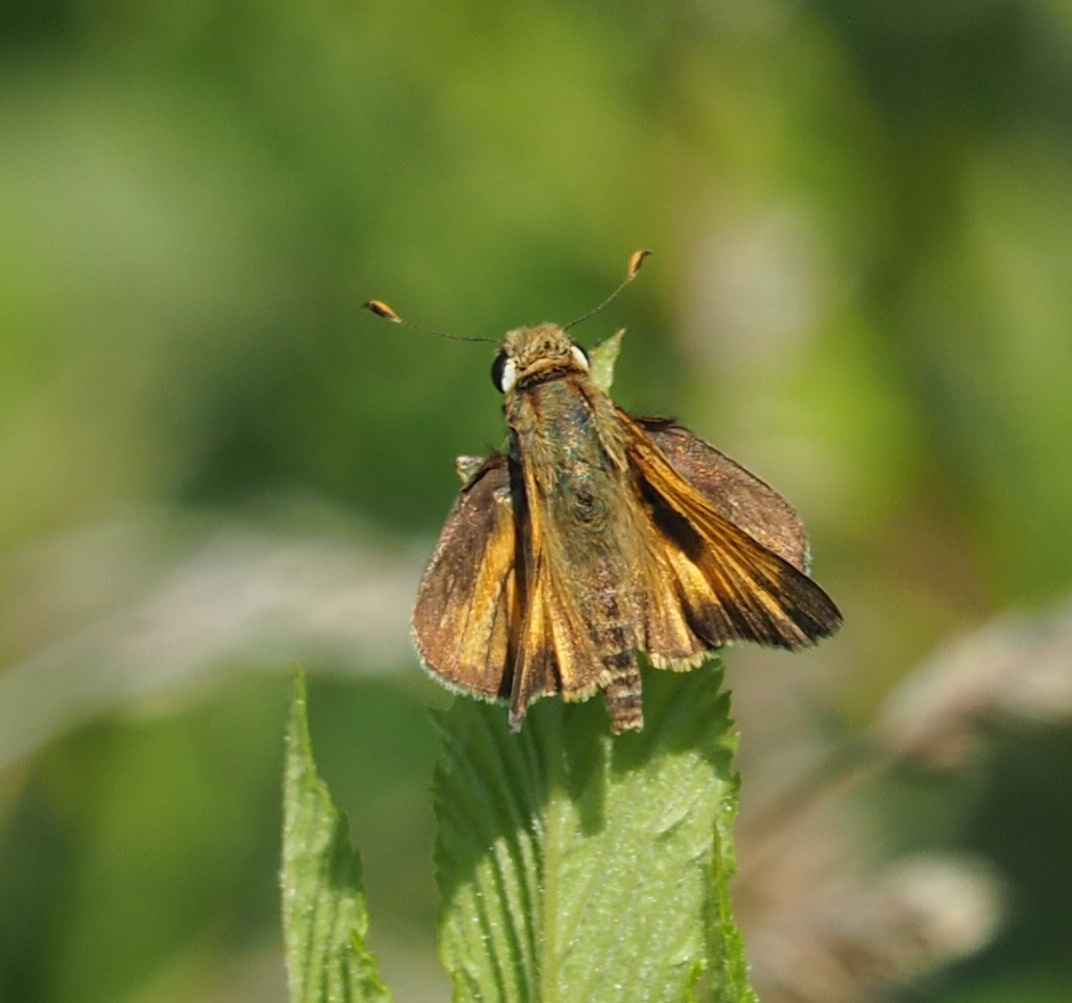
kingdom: Animalia
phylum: Arthropoda
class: Insecta
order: Lepidoptera
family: Hesperiidae
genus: Atalopedes
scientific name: Atalopedes
